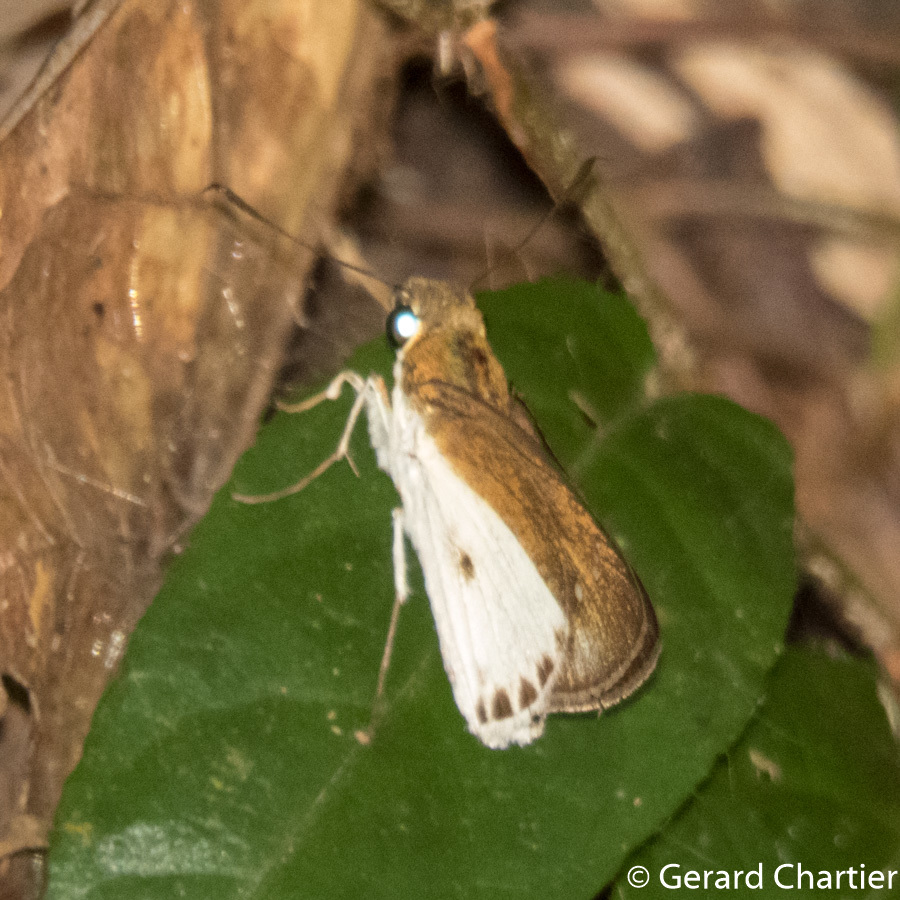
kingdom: Animalia
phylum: Arthropoda
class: Insecta
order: Lepidoptera
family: Hesperiidae
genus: Iton
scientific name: Iton semamora
